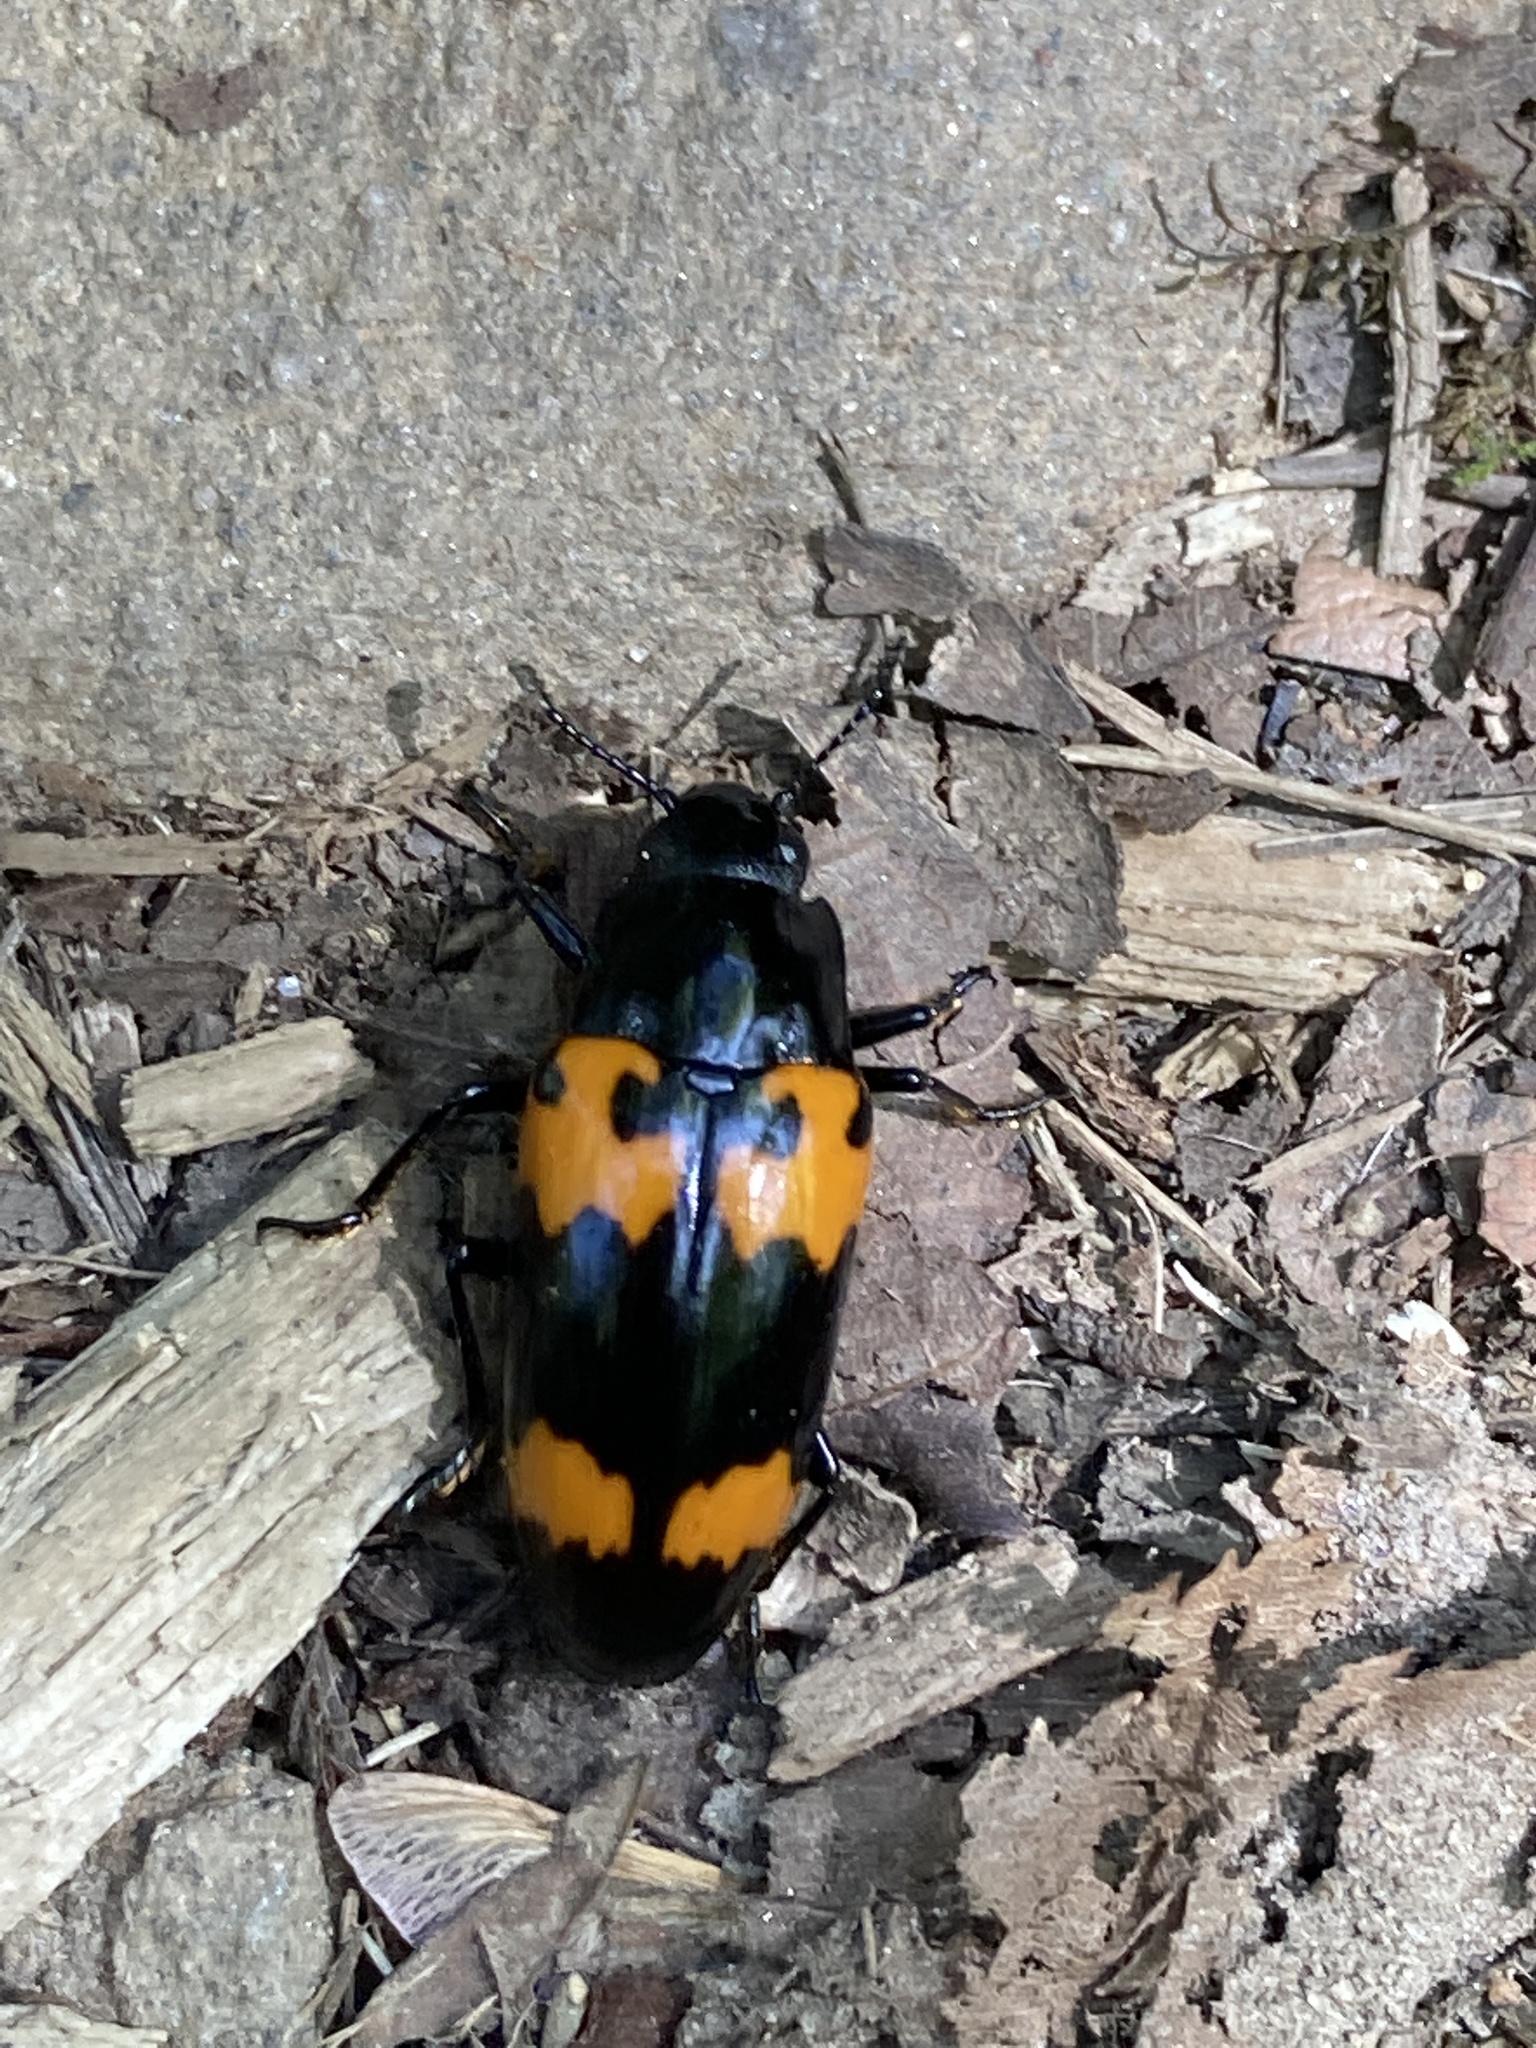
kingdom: Animalia
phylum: Arthropoda
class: Insecta
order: Coleoptera
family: Erotylidae
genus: Megalodacne
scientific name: Megalodacne heros
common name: Pleasing fungus beetle
